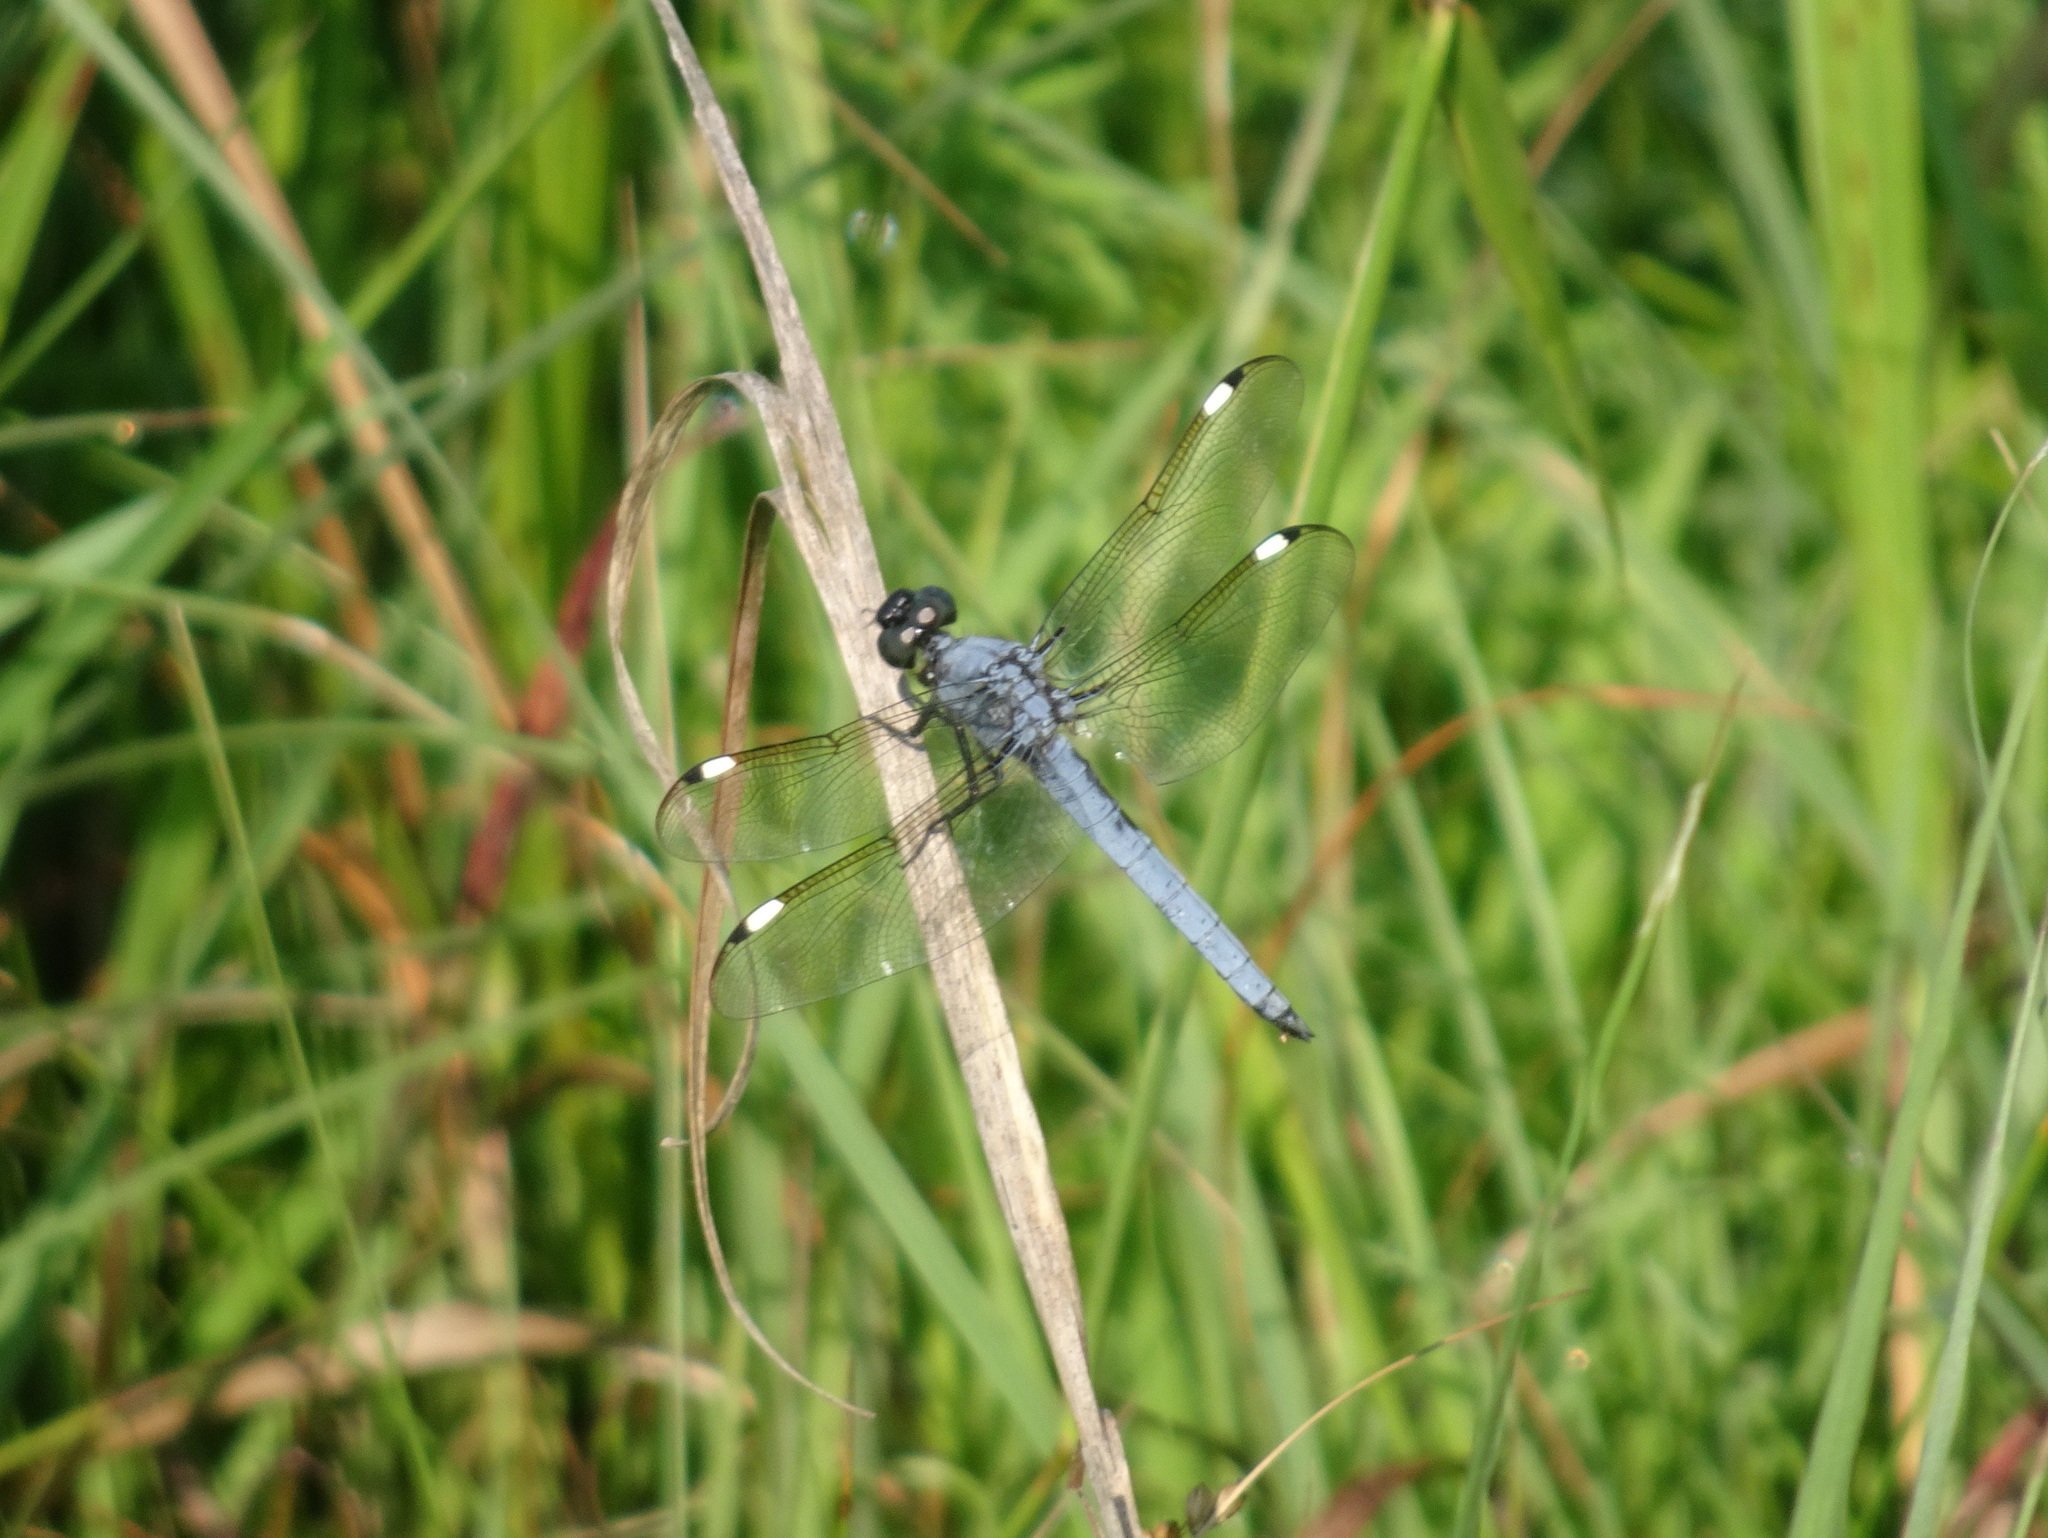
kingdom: Animalia
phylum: Arthropoda
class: Insecta
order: Odonata
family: Libellulidae
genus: Libellula
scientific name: Libellula cyanea
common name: Spangled skimmer
